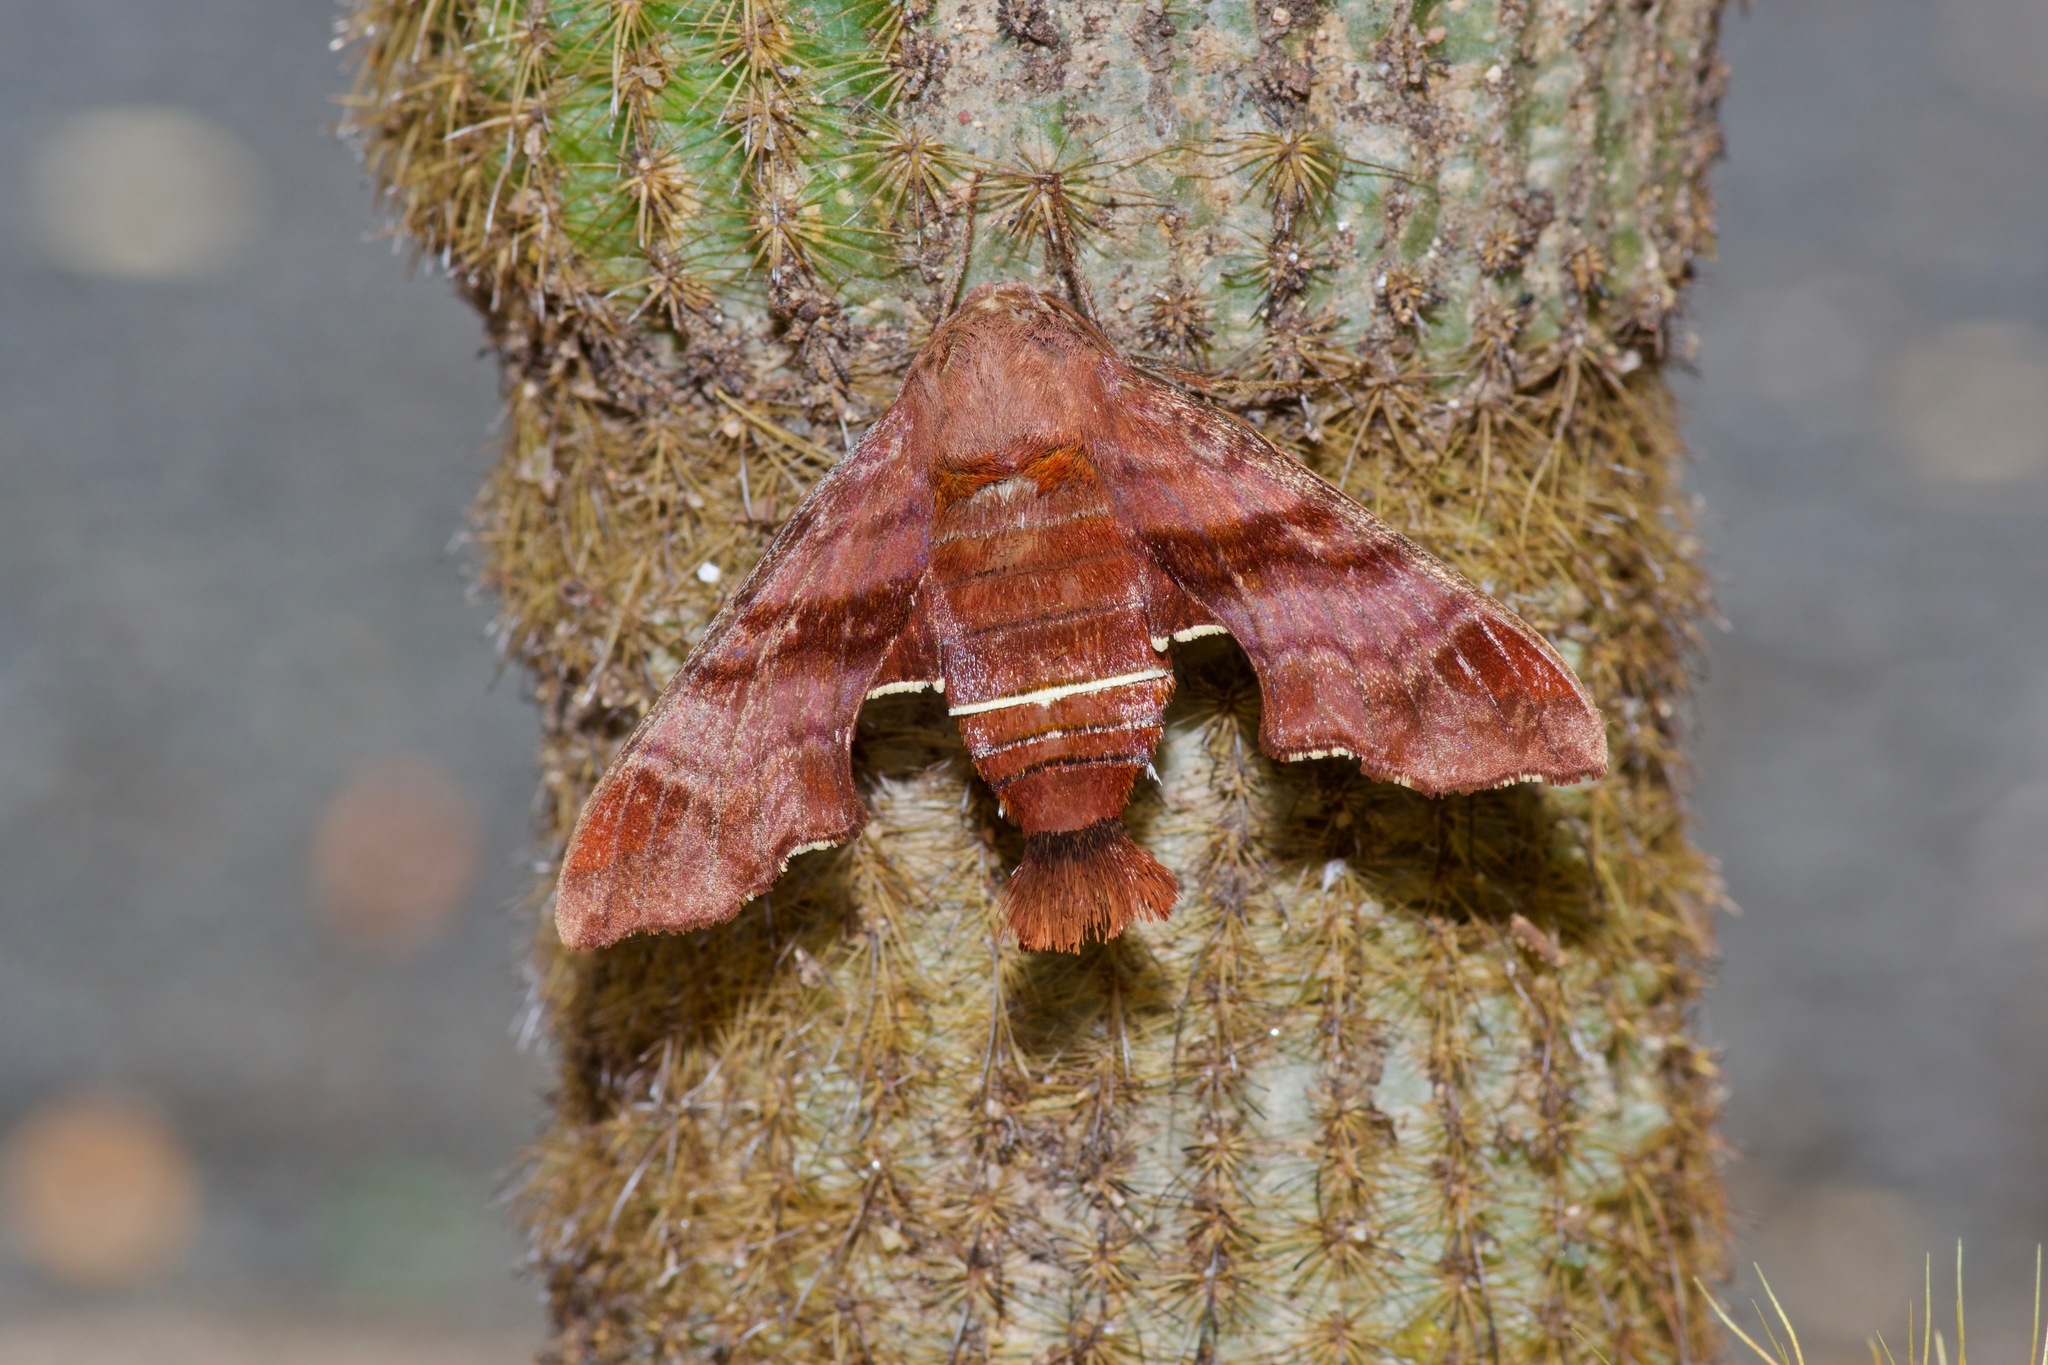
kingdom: Animalia
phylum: Arthropoda
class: Insecta
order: Lepidoptera
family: Sphingidae
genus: Amphion
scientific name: Amphion floridensis
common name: Nessus sphinx
